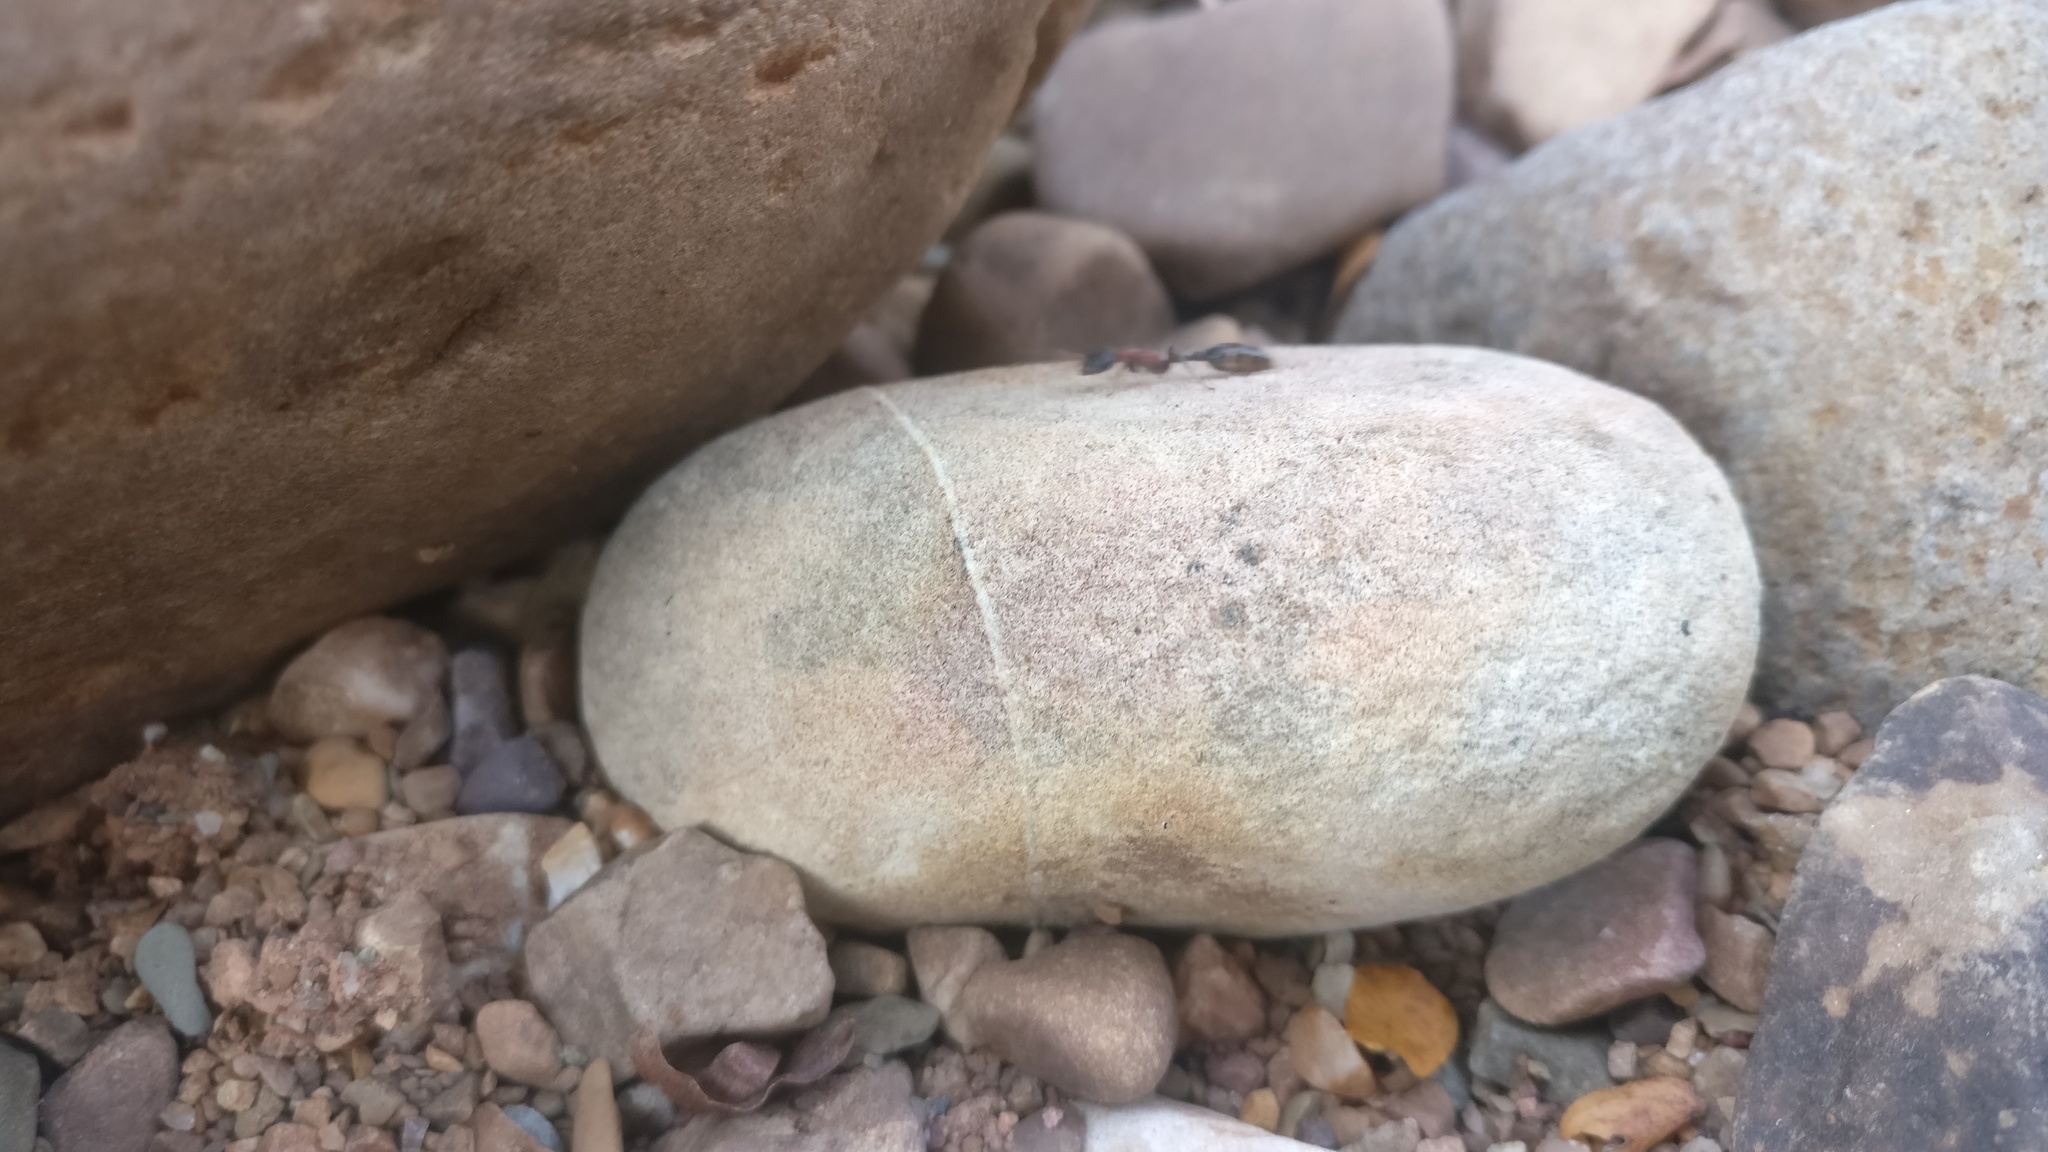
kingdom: Animalia
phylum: Arthropoda
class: Insecta
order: Hymenoptera
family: Formicidae
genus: Tetraponera
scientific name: Tetraponera rufonigra
